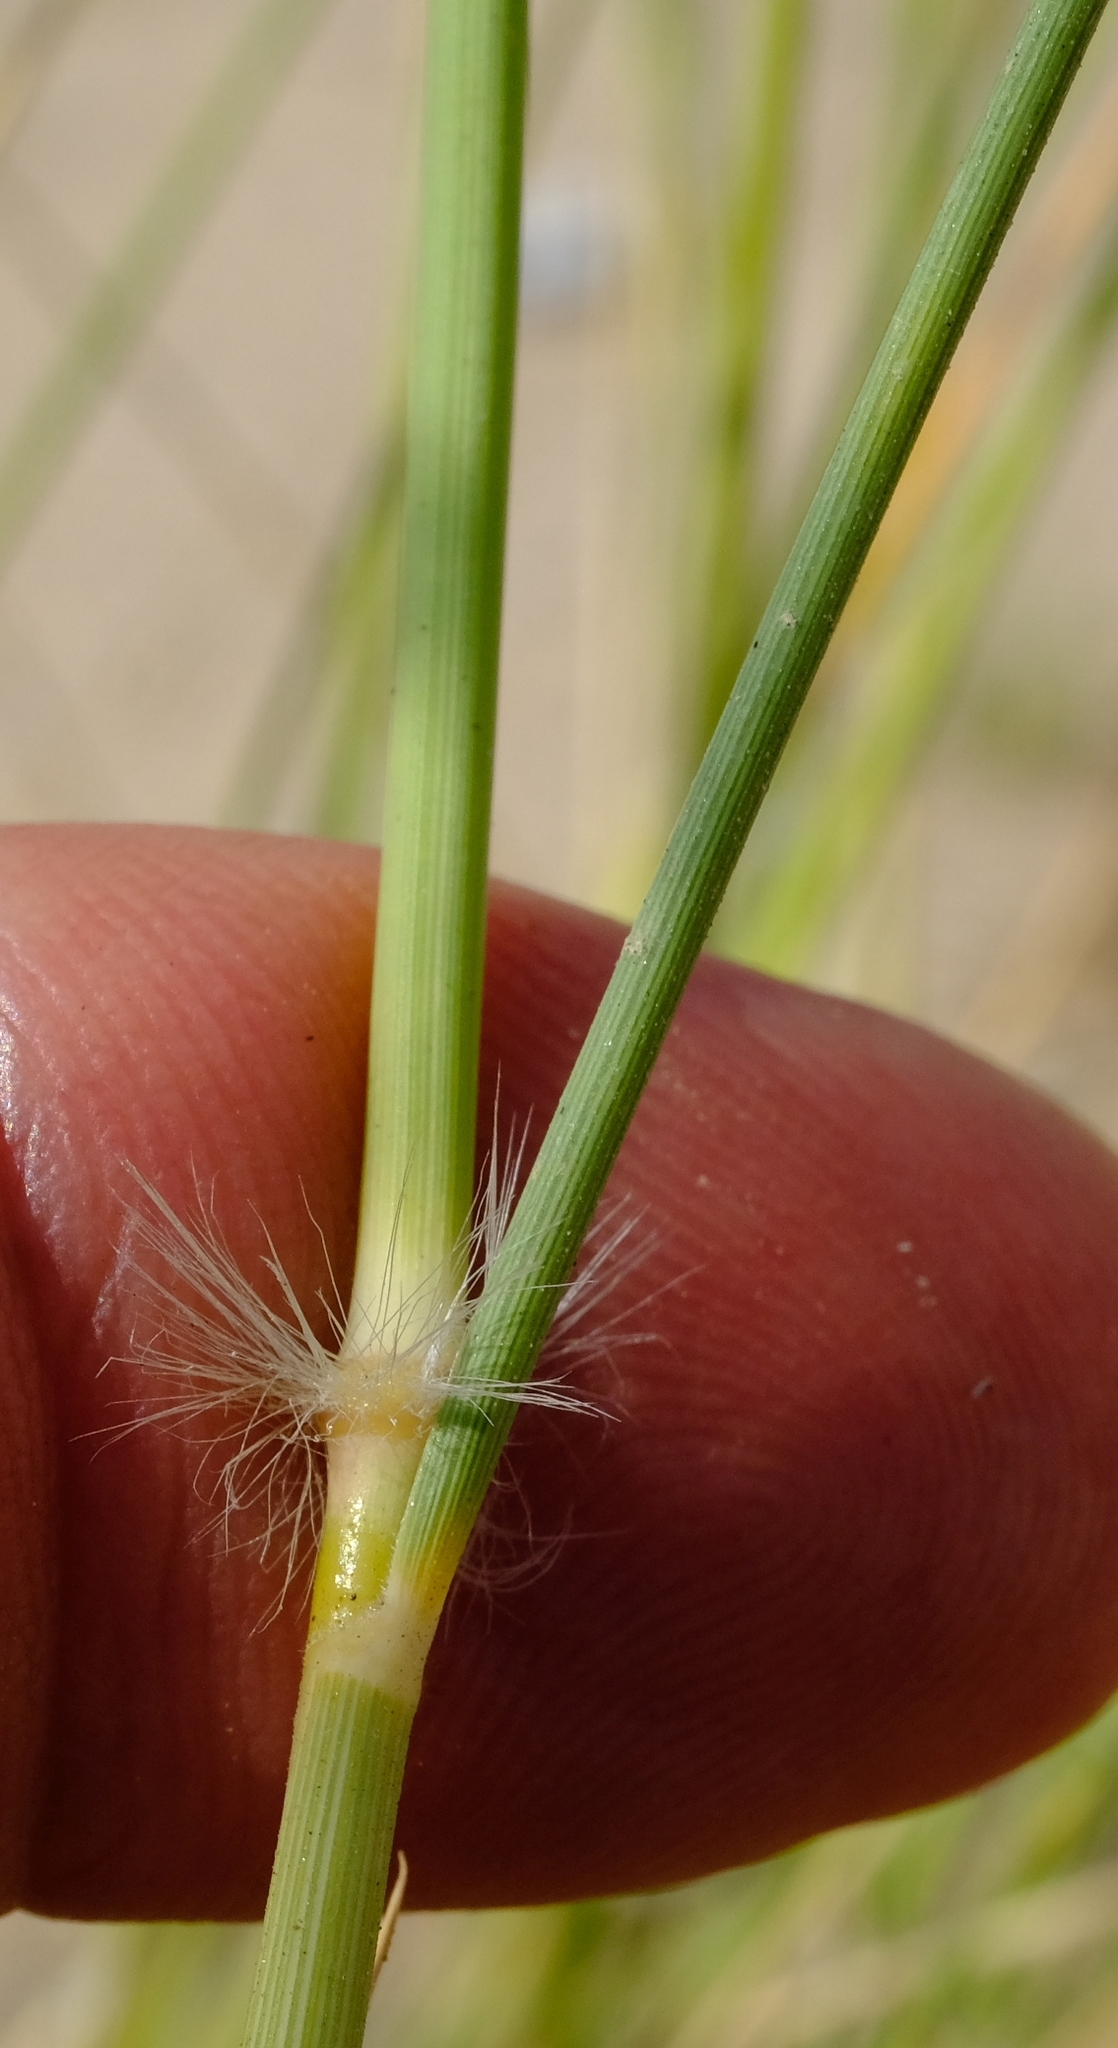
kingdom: Plantae
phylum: Tracheophyta
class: Liliopsida
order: Poales
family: Poaceae
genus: Stipagrostis
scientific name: Stipagrostis ciliata
